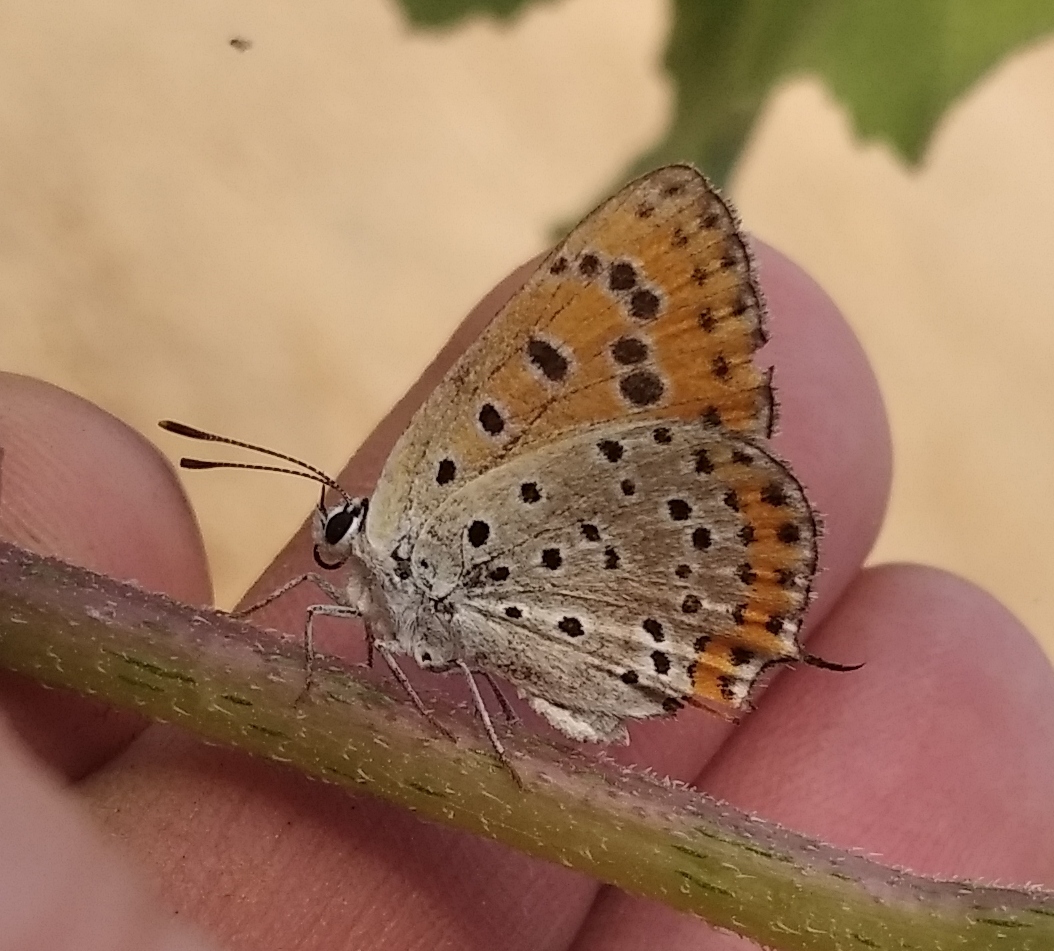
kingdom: Animalia
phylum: Arthropoda
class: Insecta
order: Lepidoptera
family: Lycaenidae
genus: Thersamonia
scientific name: Thersamonia thersamon
